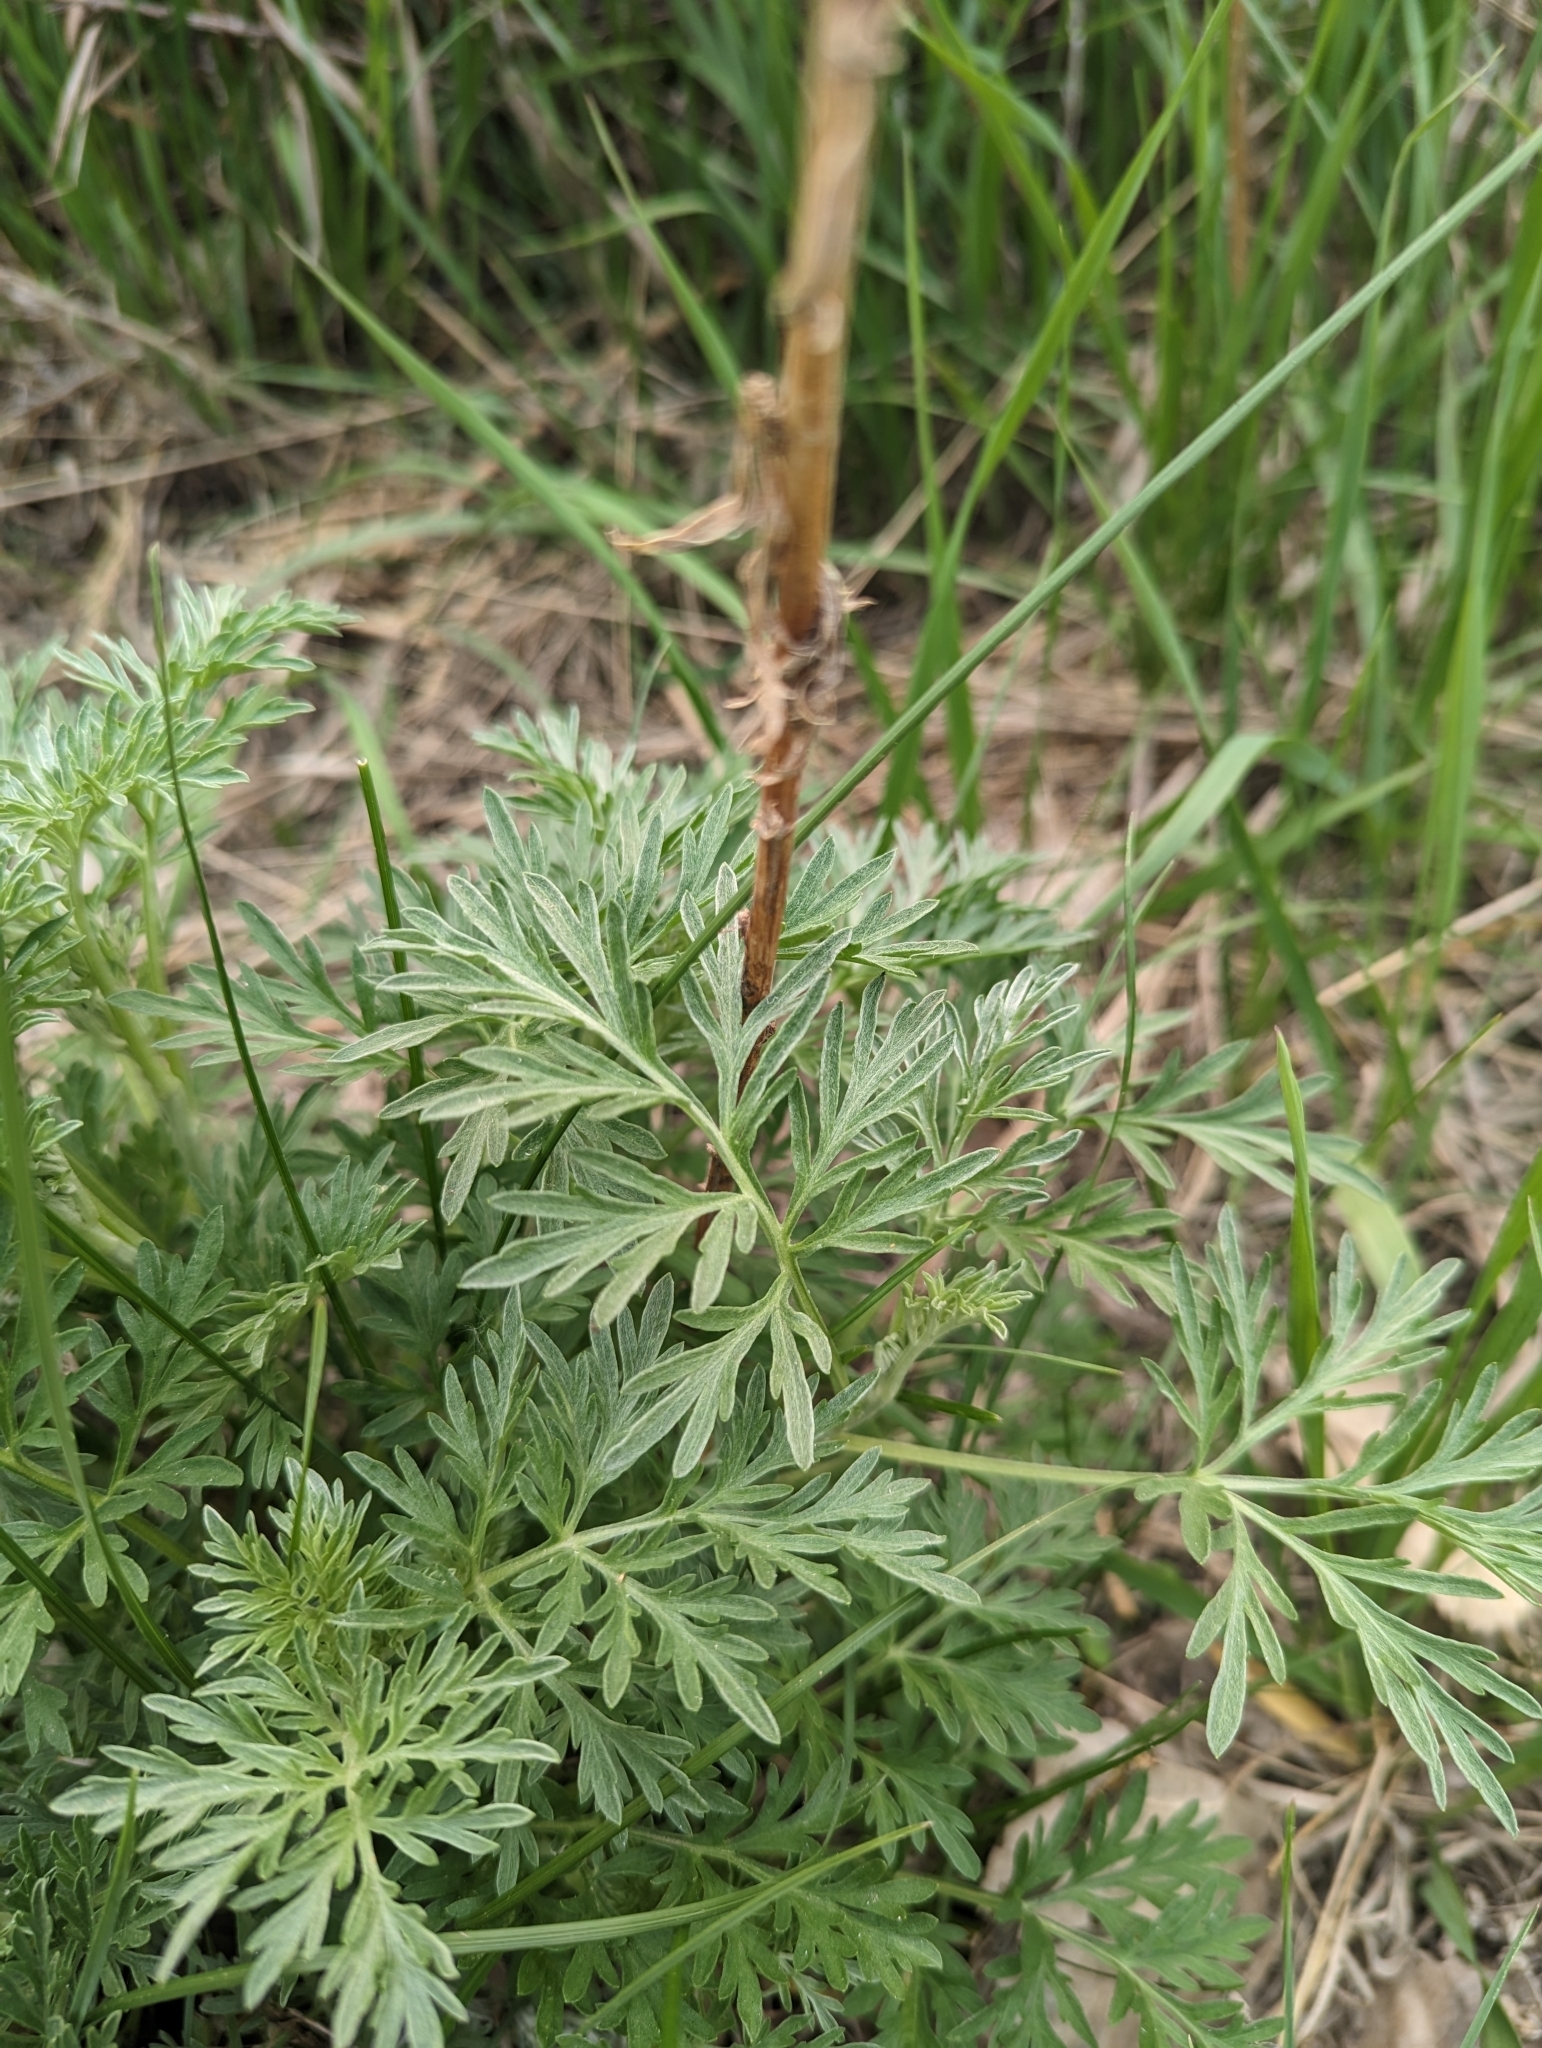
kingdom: Plantae
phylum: Tracheophyta
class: Magnoliopsida
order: Asterales
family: Asteraceae
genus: Artemisia
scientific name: Artemisia absinthium
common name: Wormwood
